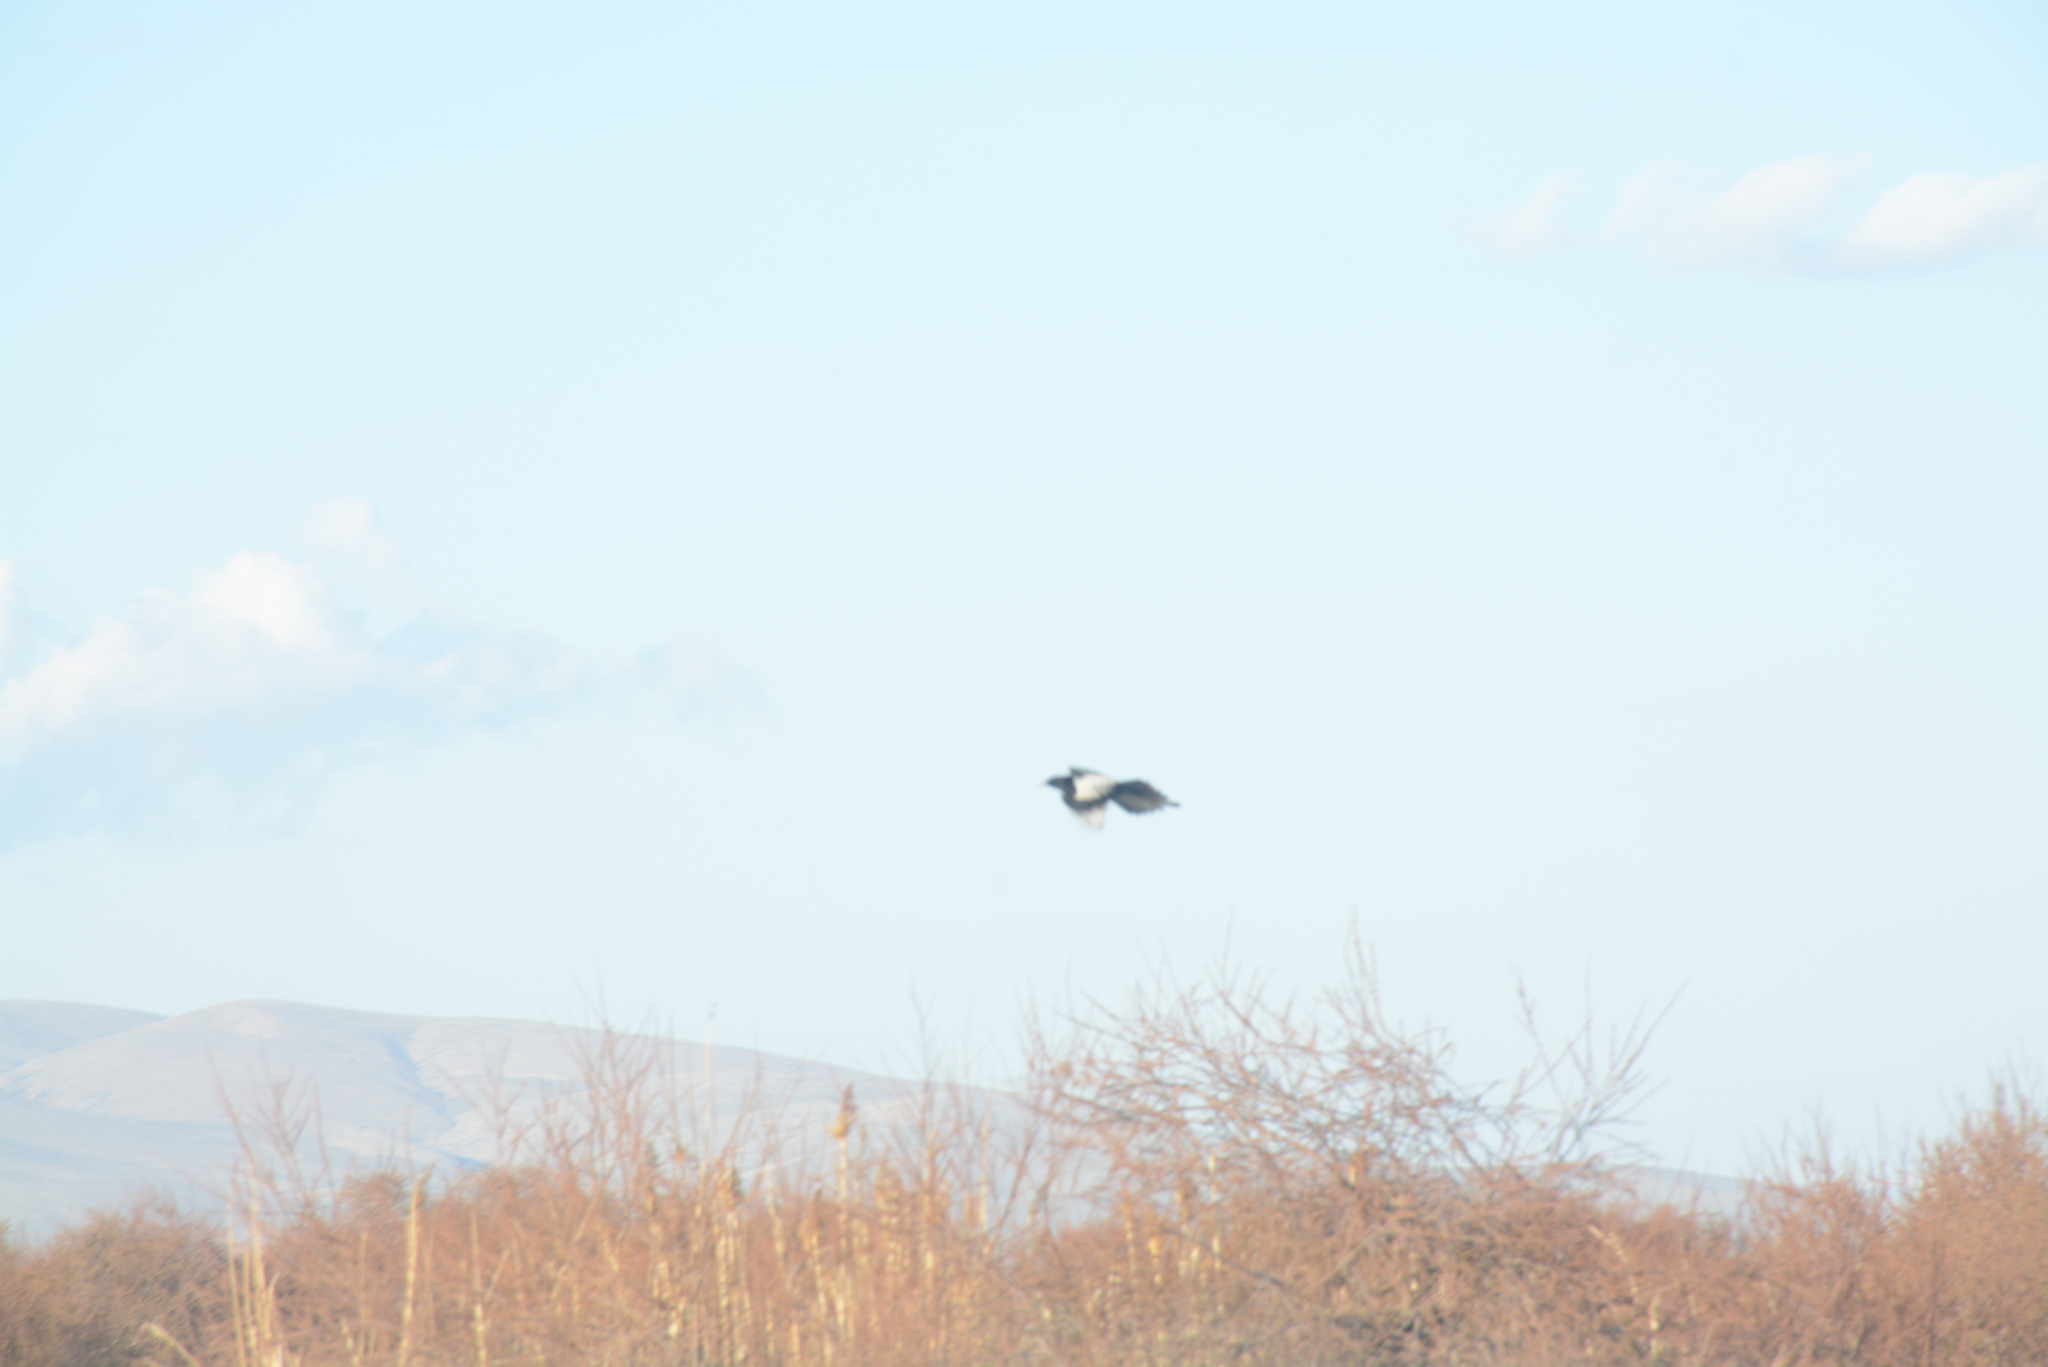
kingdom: Animalia
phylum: Chordata
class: Aves
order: Passeriformes
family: Corvidae
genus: Pica
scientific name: Pica pica
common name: Eurasian magpie
